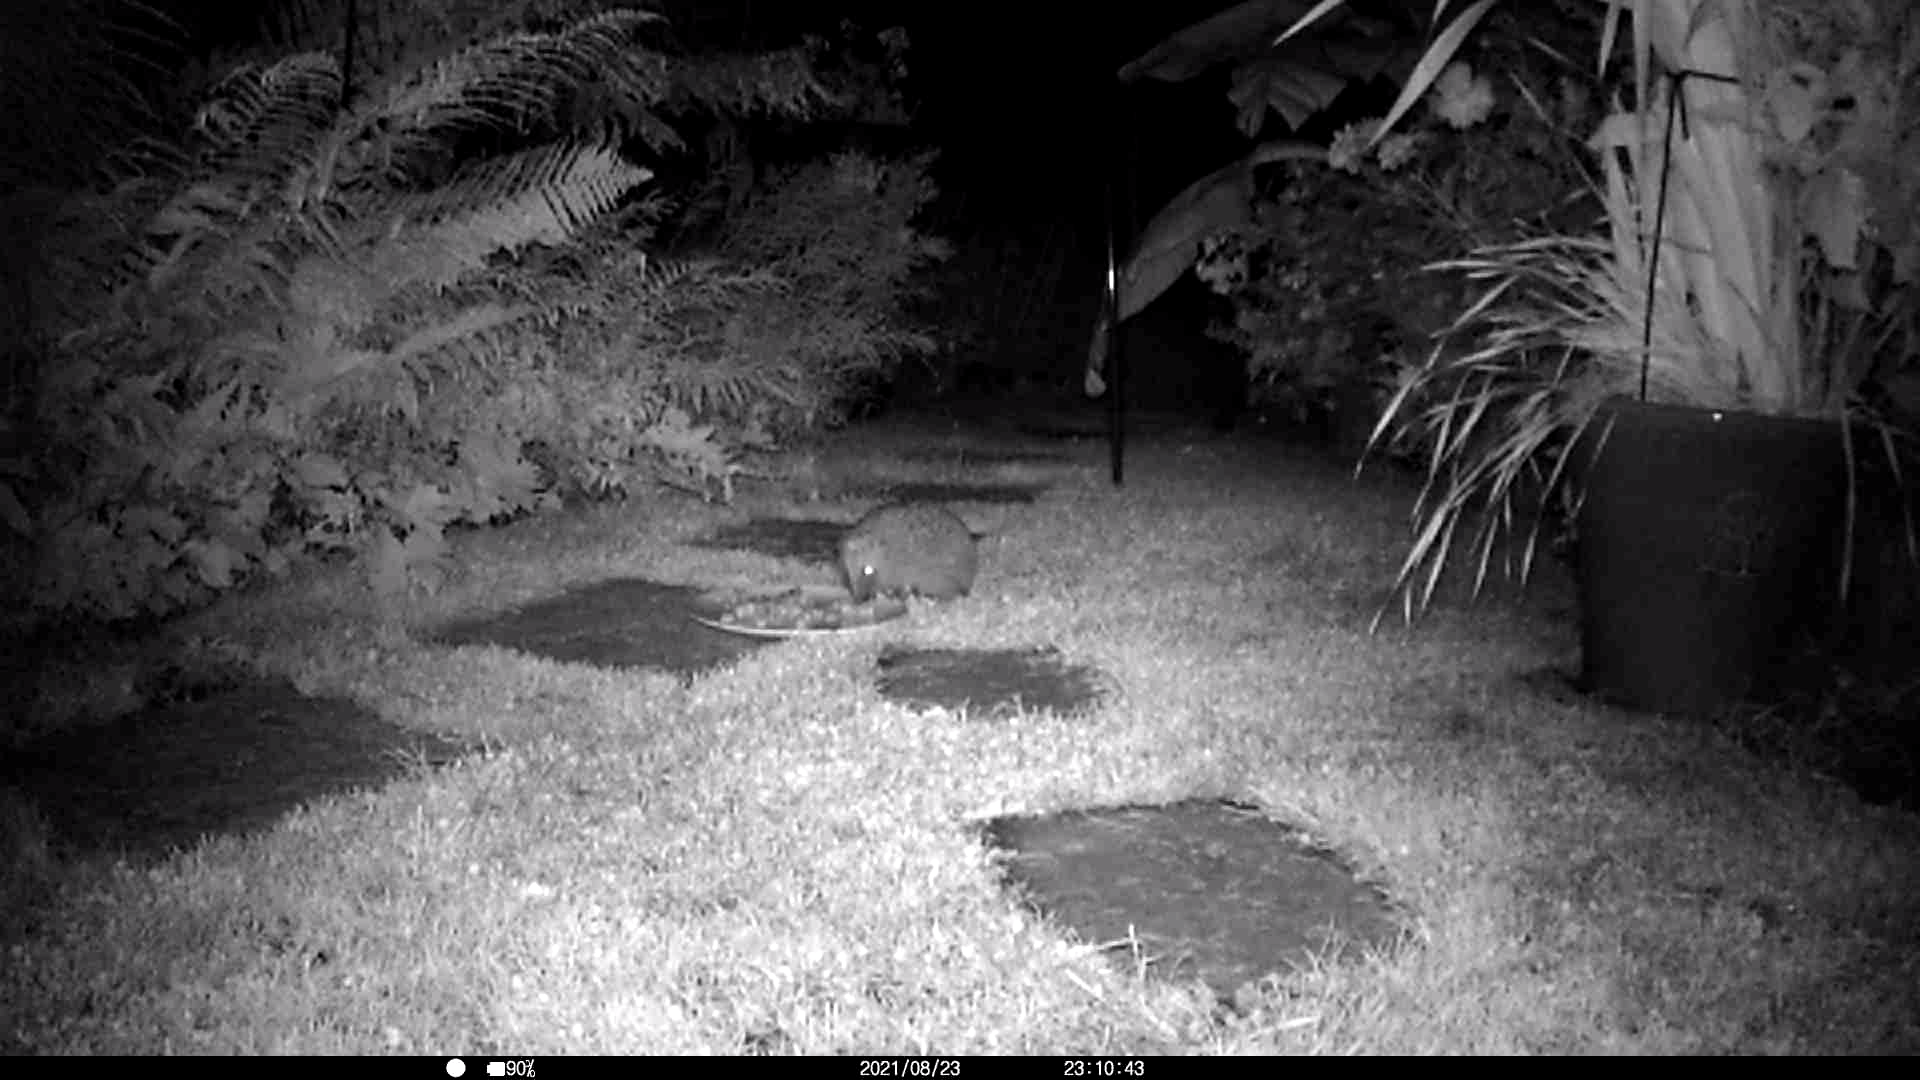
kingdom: Animalia
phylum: Chordata
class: Mammalia
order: Erinaceomorpha
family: Erinaceidae
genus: Erinaceus
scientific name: Erinaceus europaeus
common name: West european hedgehog
